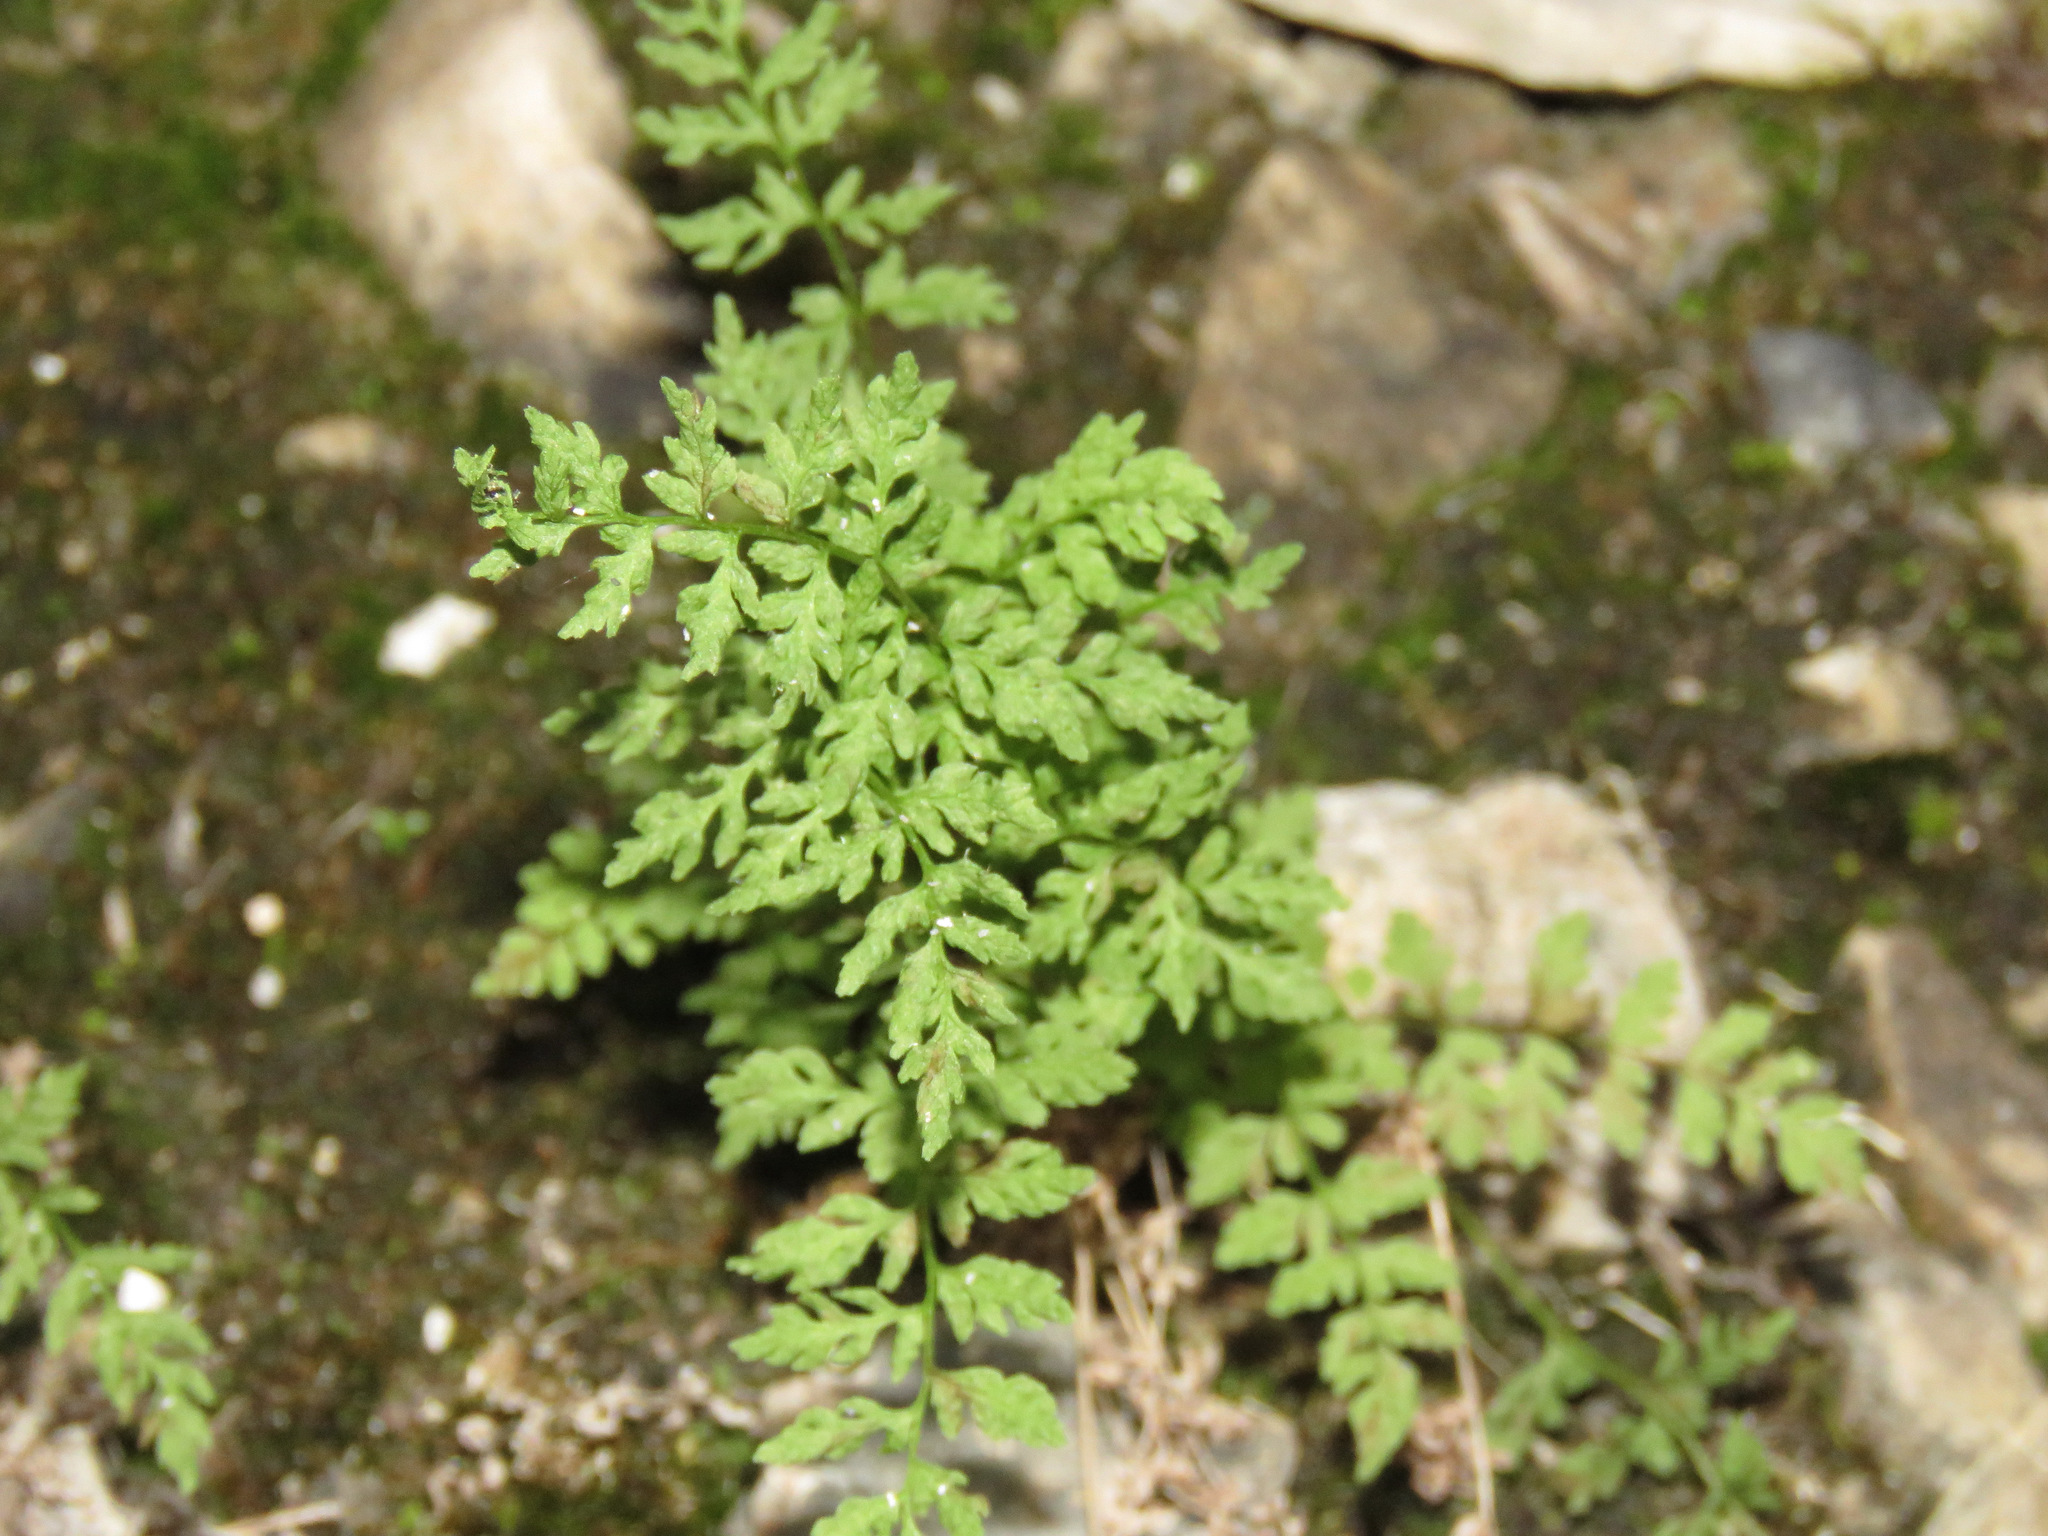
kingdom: Plantae
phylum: Tracheophyta
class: Polypodiopsida
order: Polypodiales
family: Cystopteridaceae
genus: Cystopteris
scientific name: Cystopteris fragilis
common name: Brittle bladder fern
